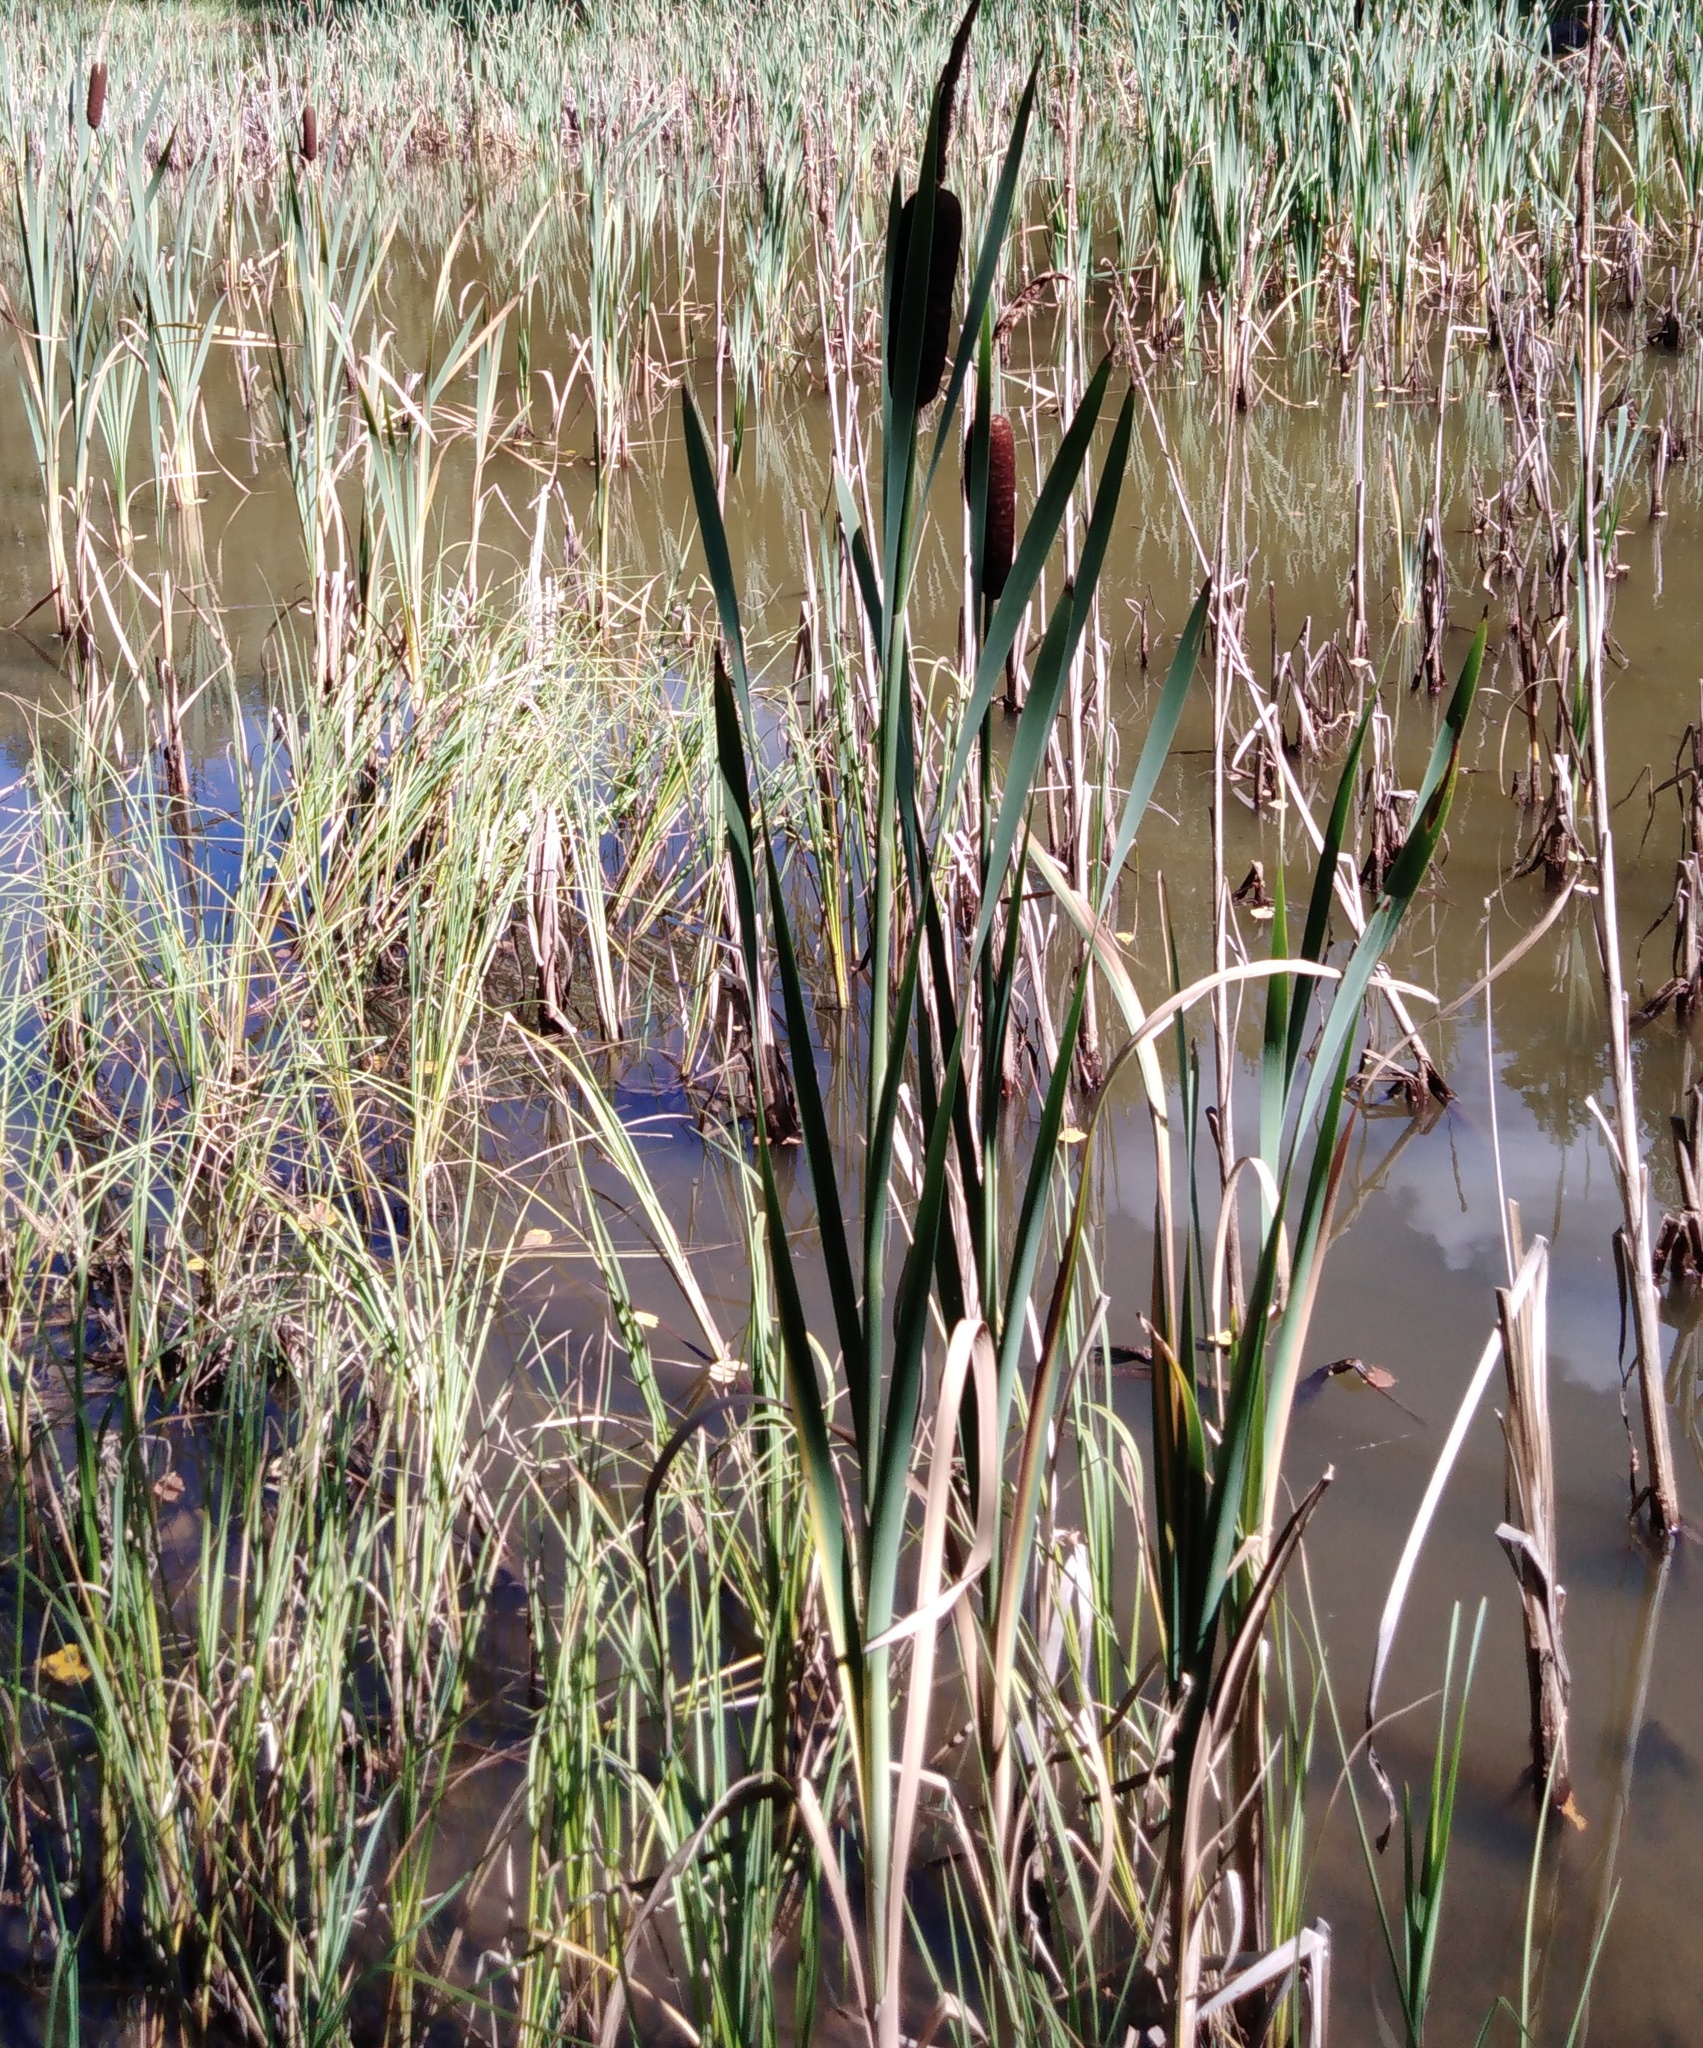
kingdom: Plantae
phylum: Tracheophyta
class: Liliopsida
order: Poales
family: Typhaceae
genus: Typha
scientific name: Typha latifolia
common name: Broadleaf cattail
